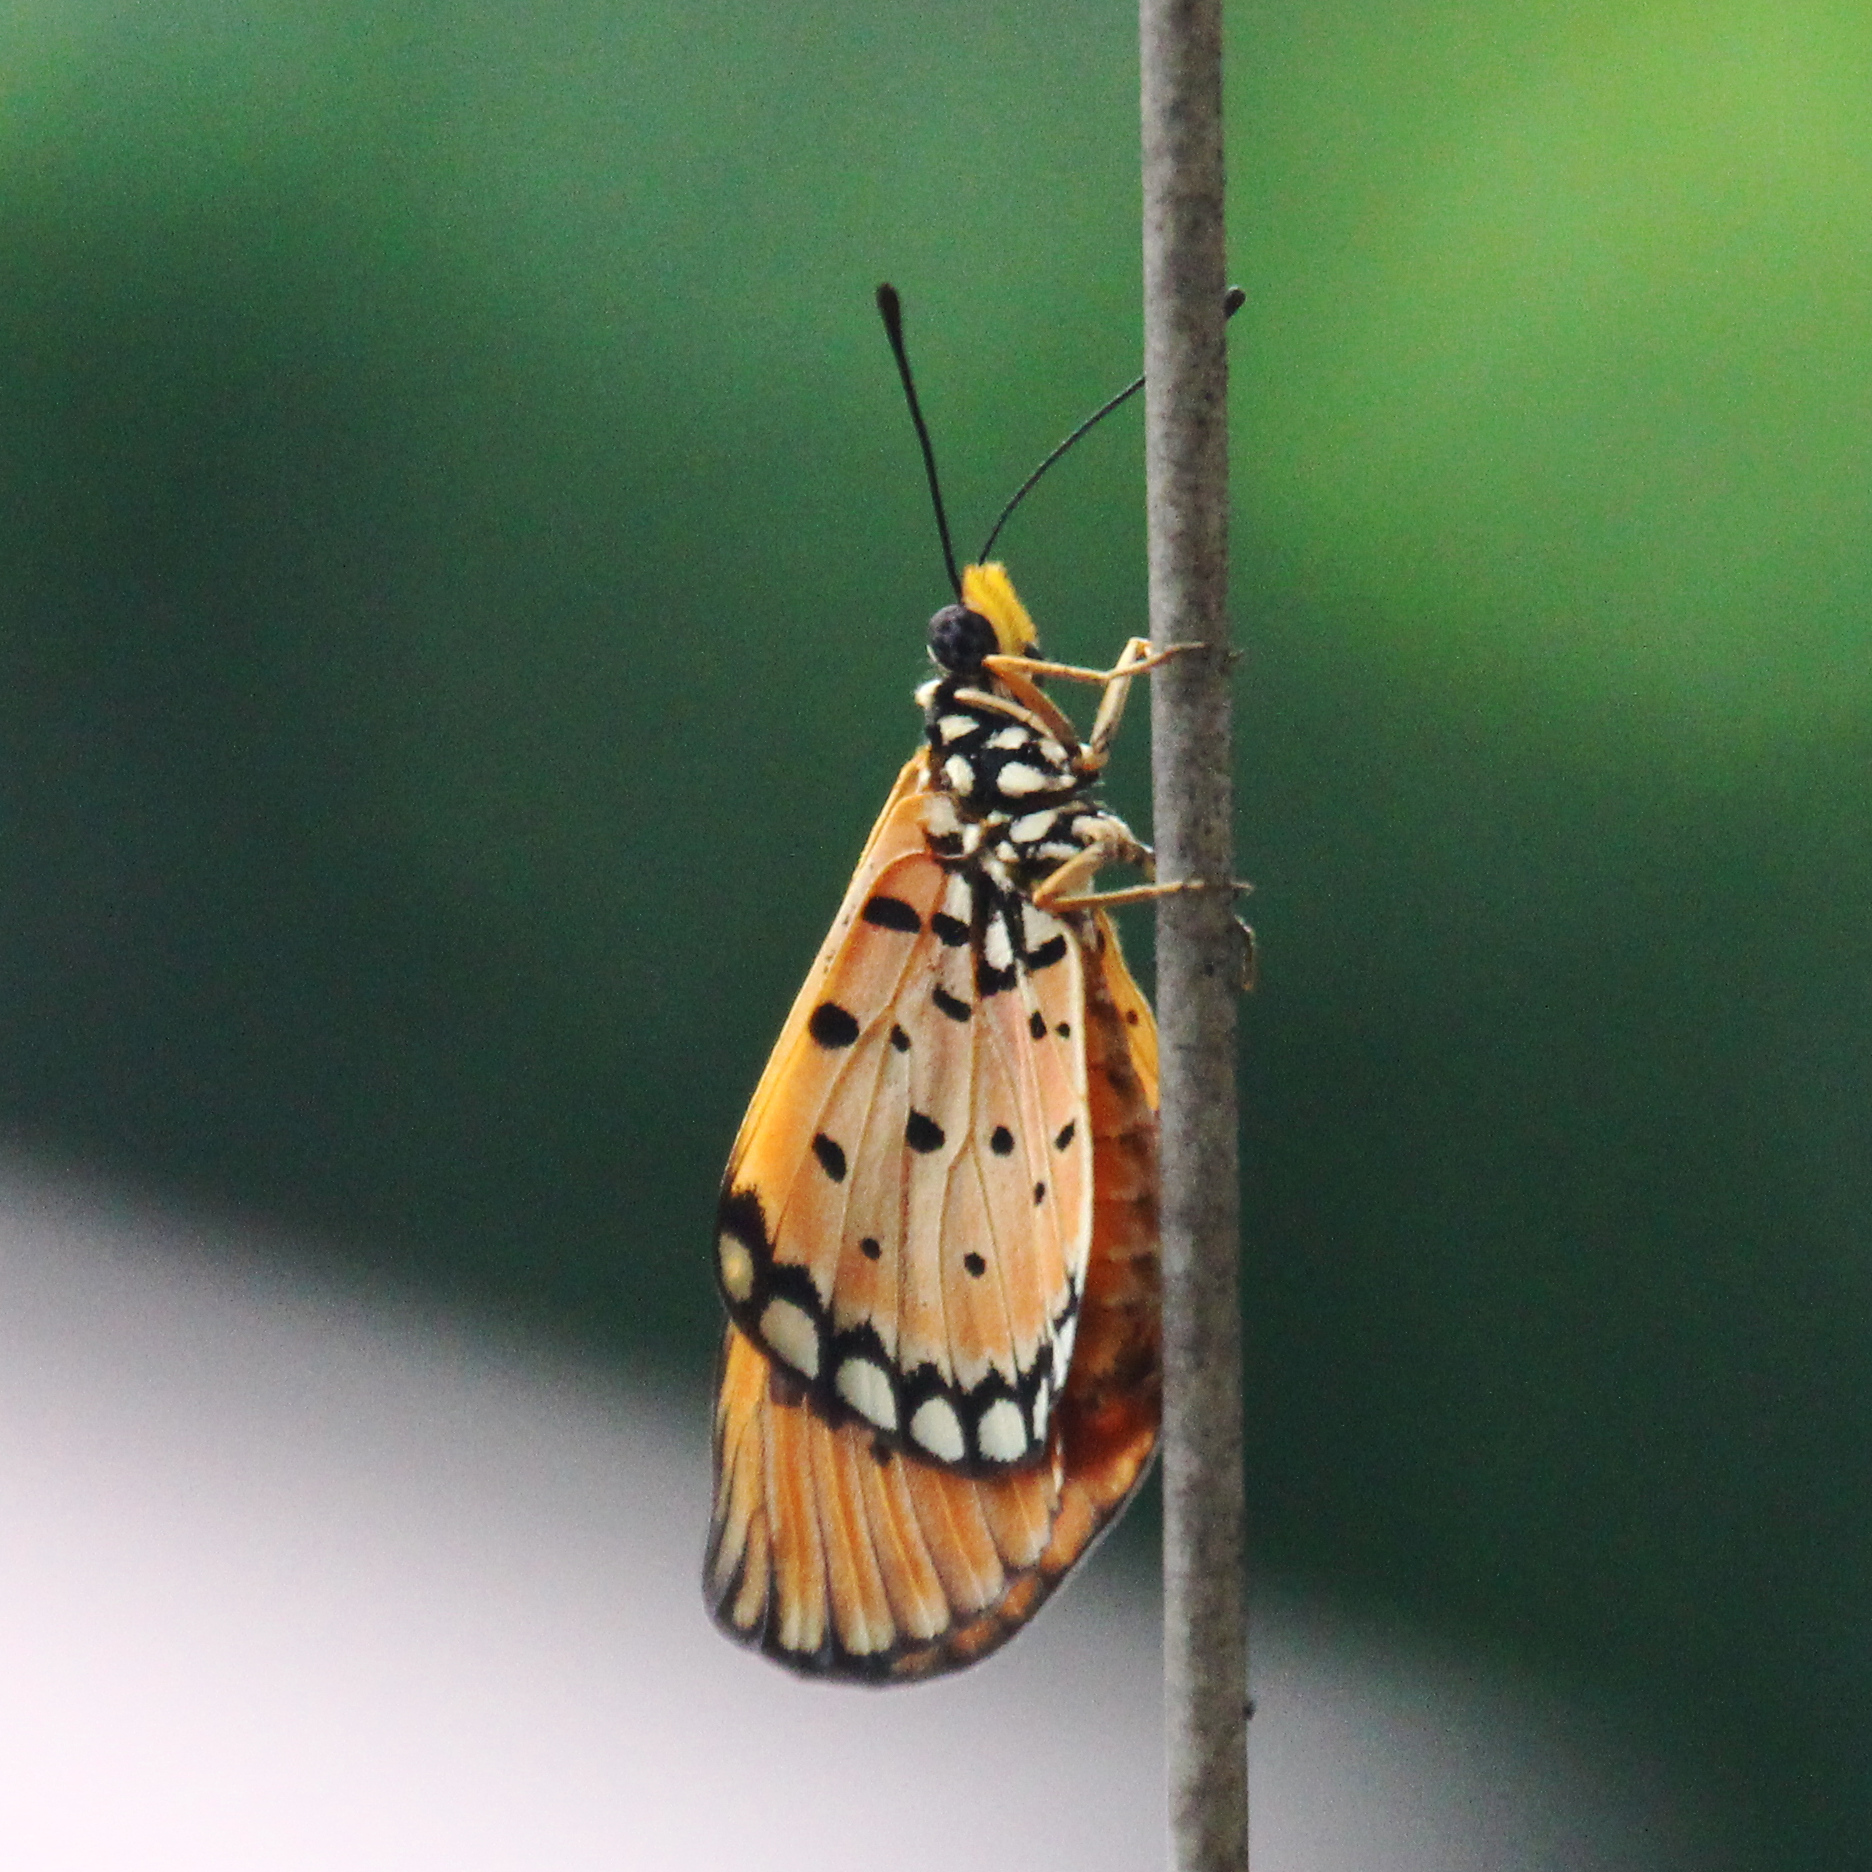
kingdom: Animalia
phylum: Arthropoda
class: Insecta
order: Lepidoptera
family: Nymphalidae
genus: Acraea
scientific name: Acraea terpsicore
